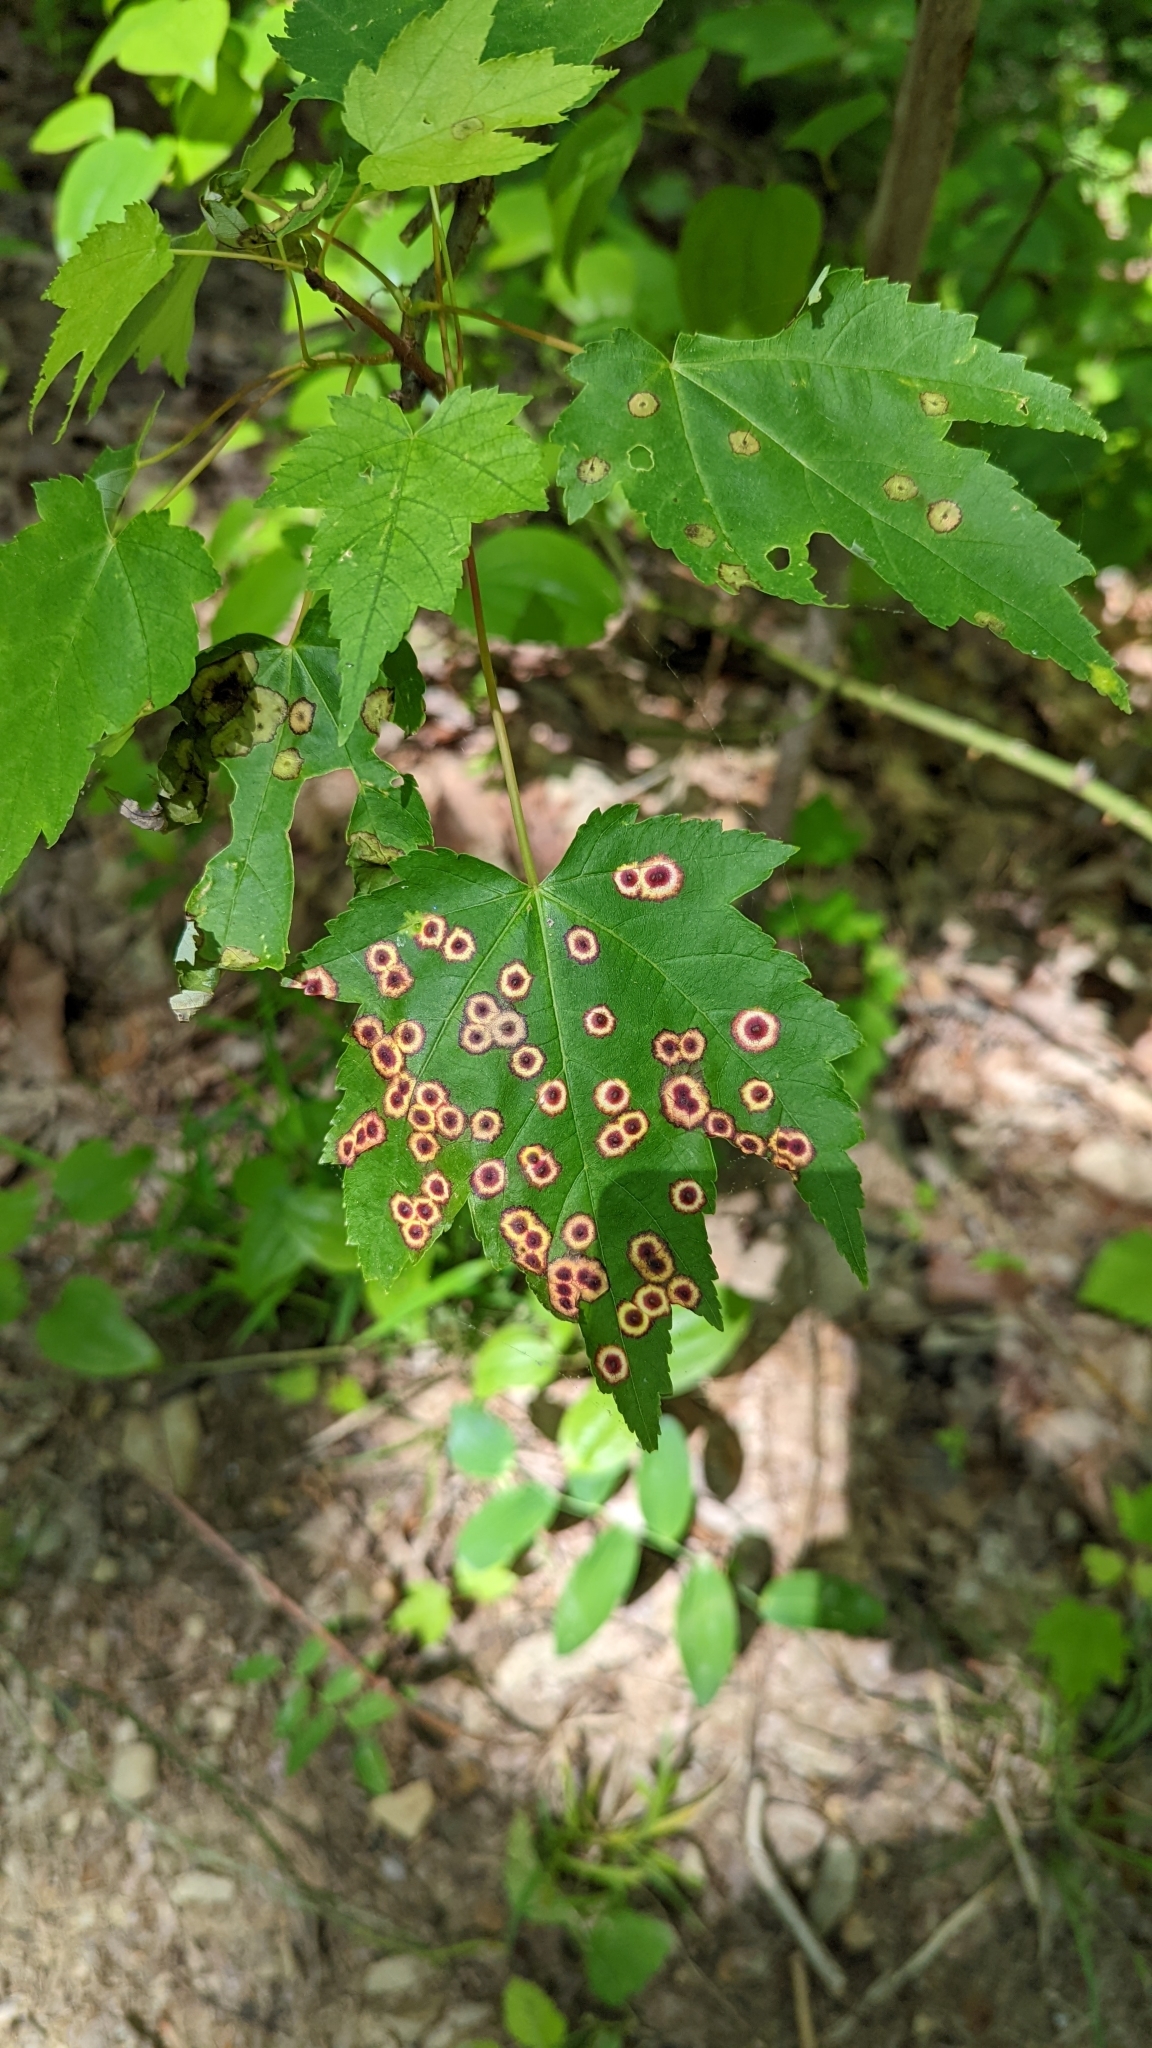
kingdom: Animalia
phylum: Arthropoda
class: Insecta
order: Diptera
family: Cecidomyiidae
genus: Acericecis
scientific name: Acericecis ocellaris
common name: Ocellate gall midge
